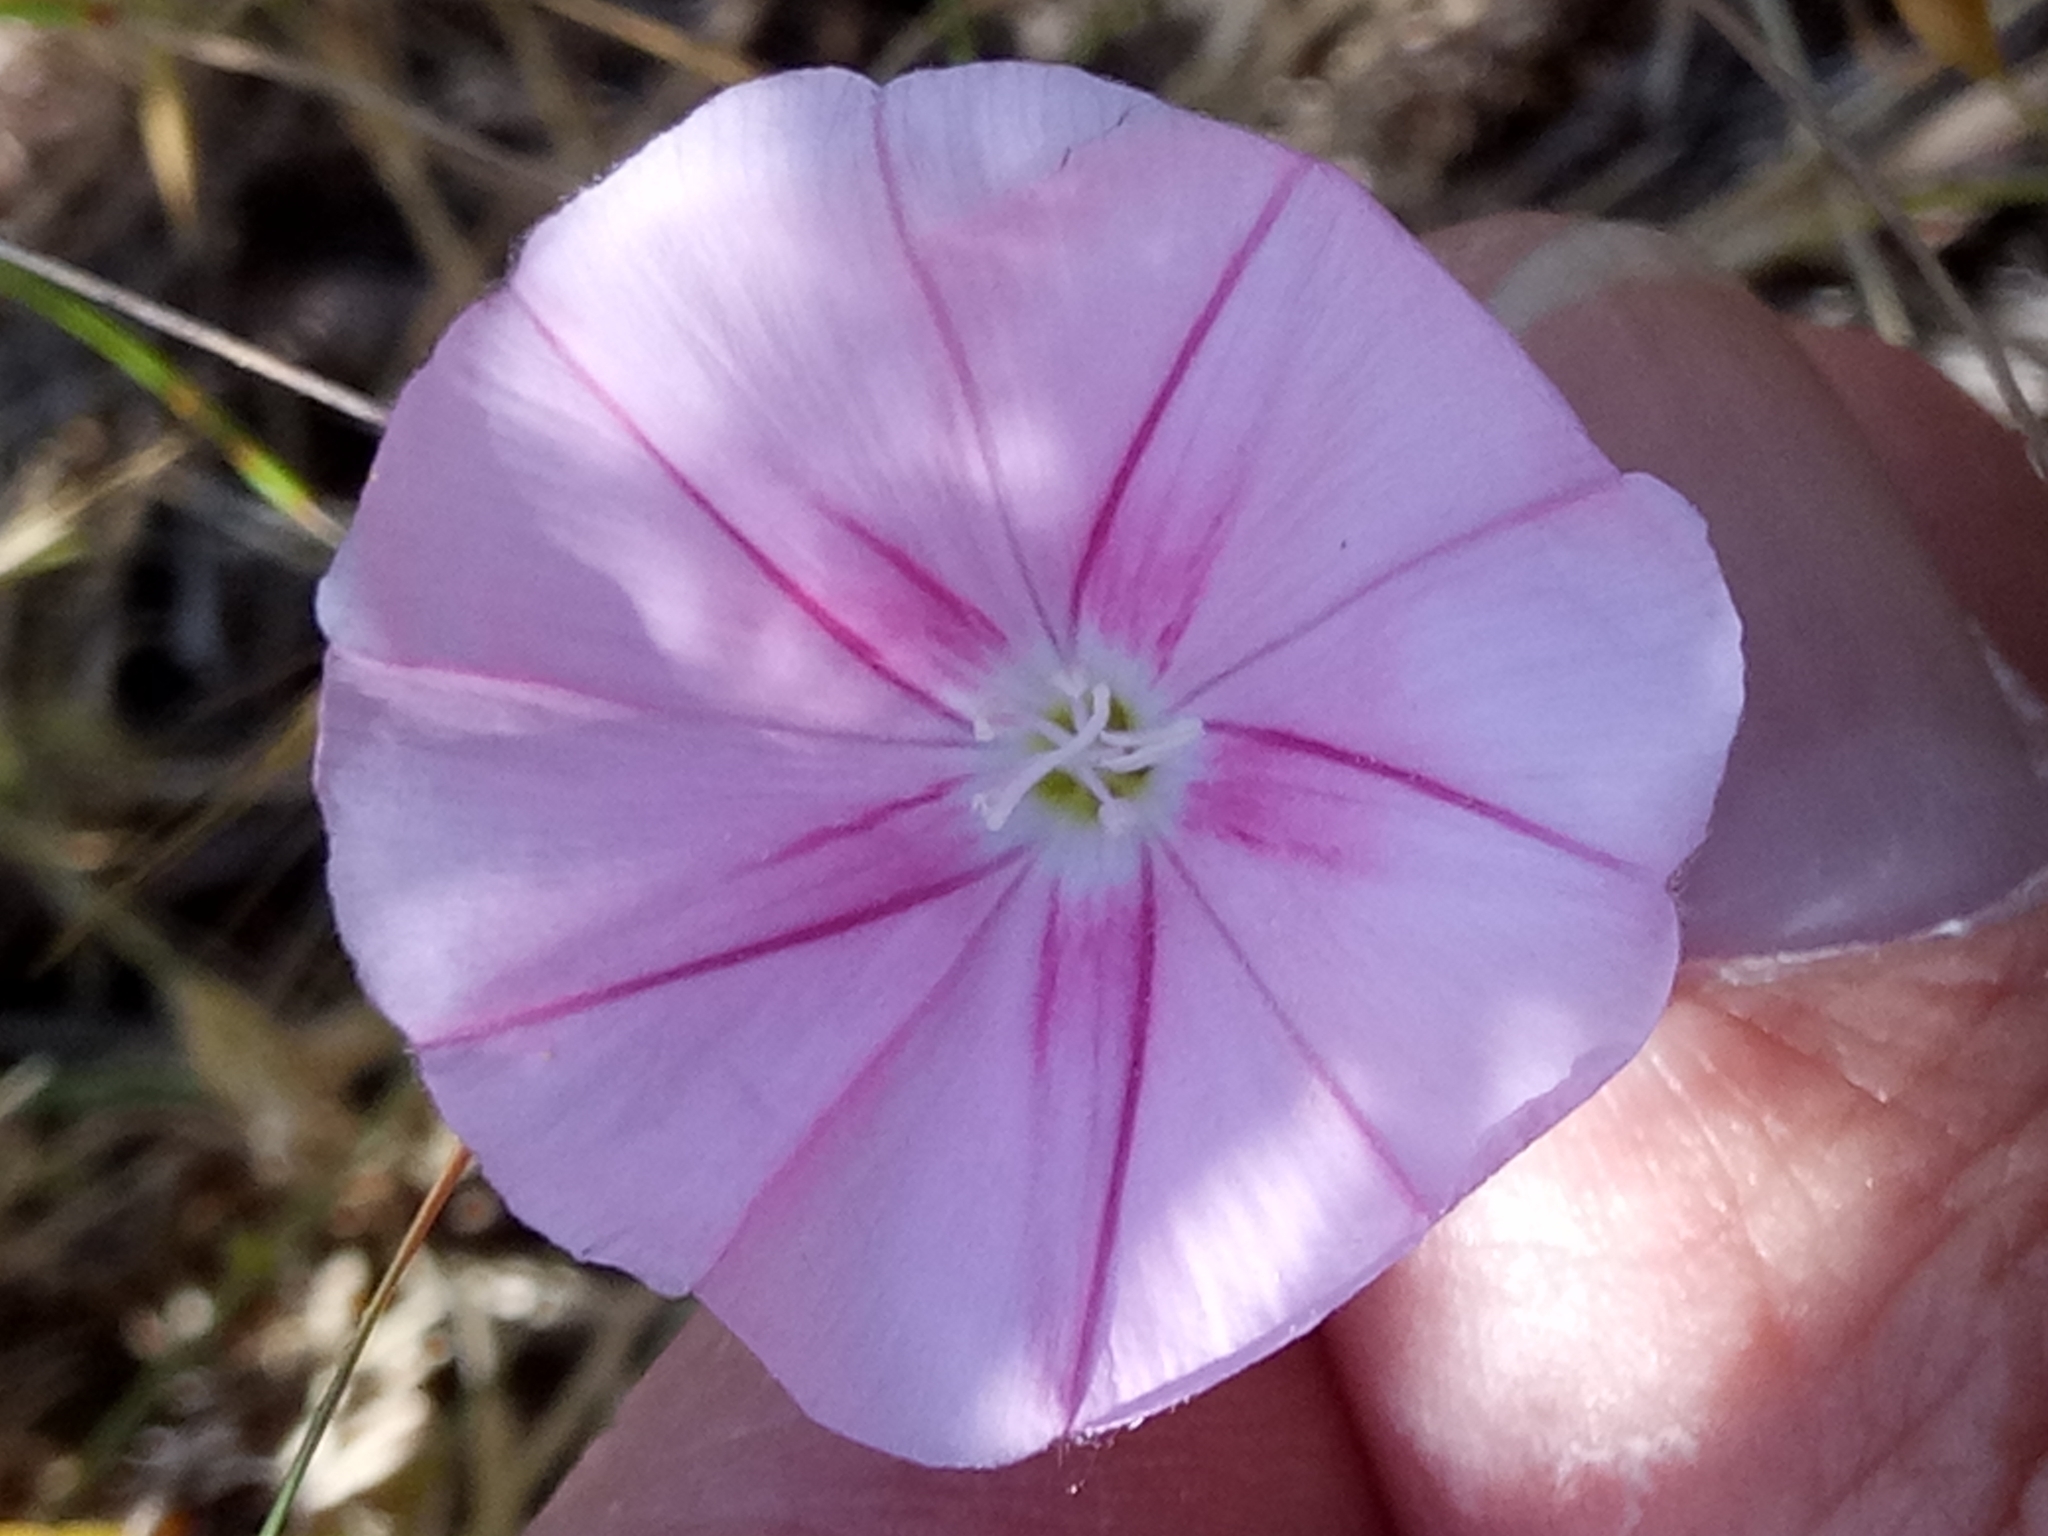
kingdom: Plantae
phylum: Tracheophyta
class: Magnoliopsida
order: Solanales
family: Convolvulaceae
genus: Convolvulus
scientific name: Convolvulus cantabrica
